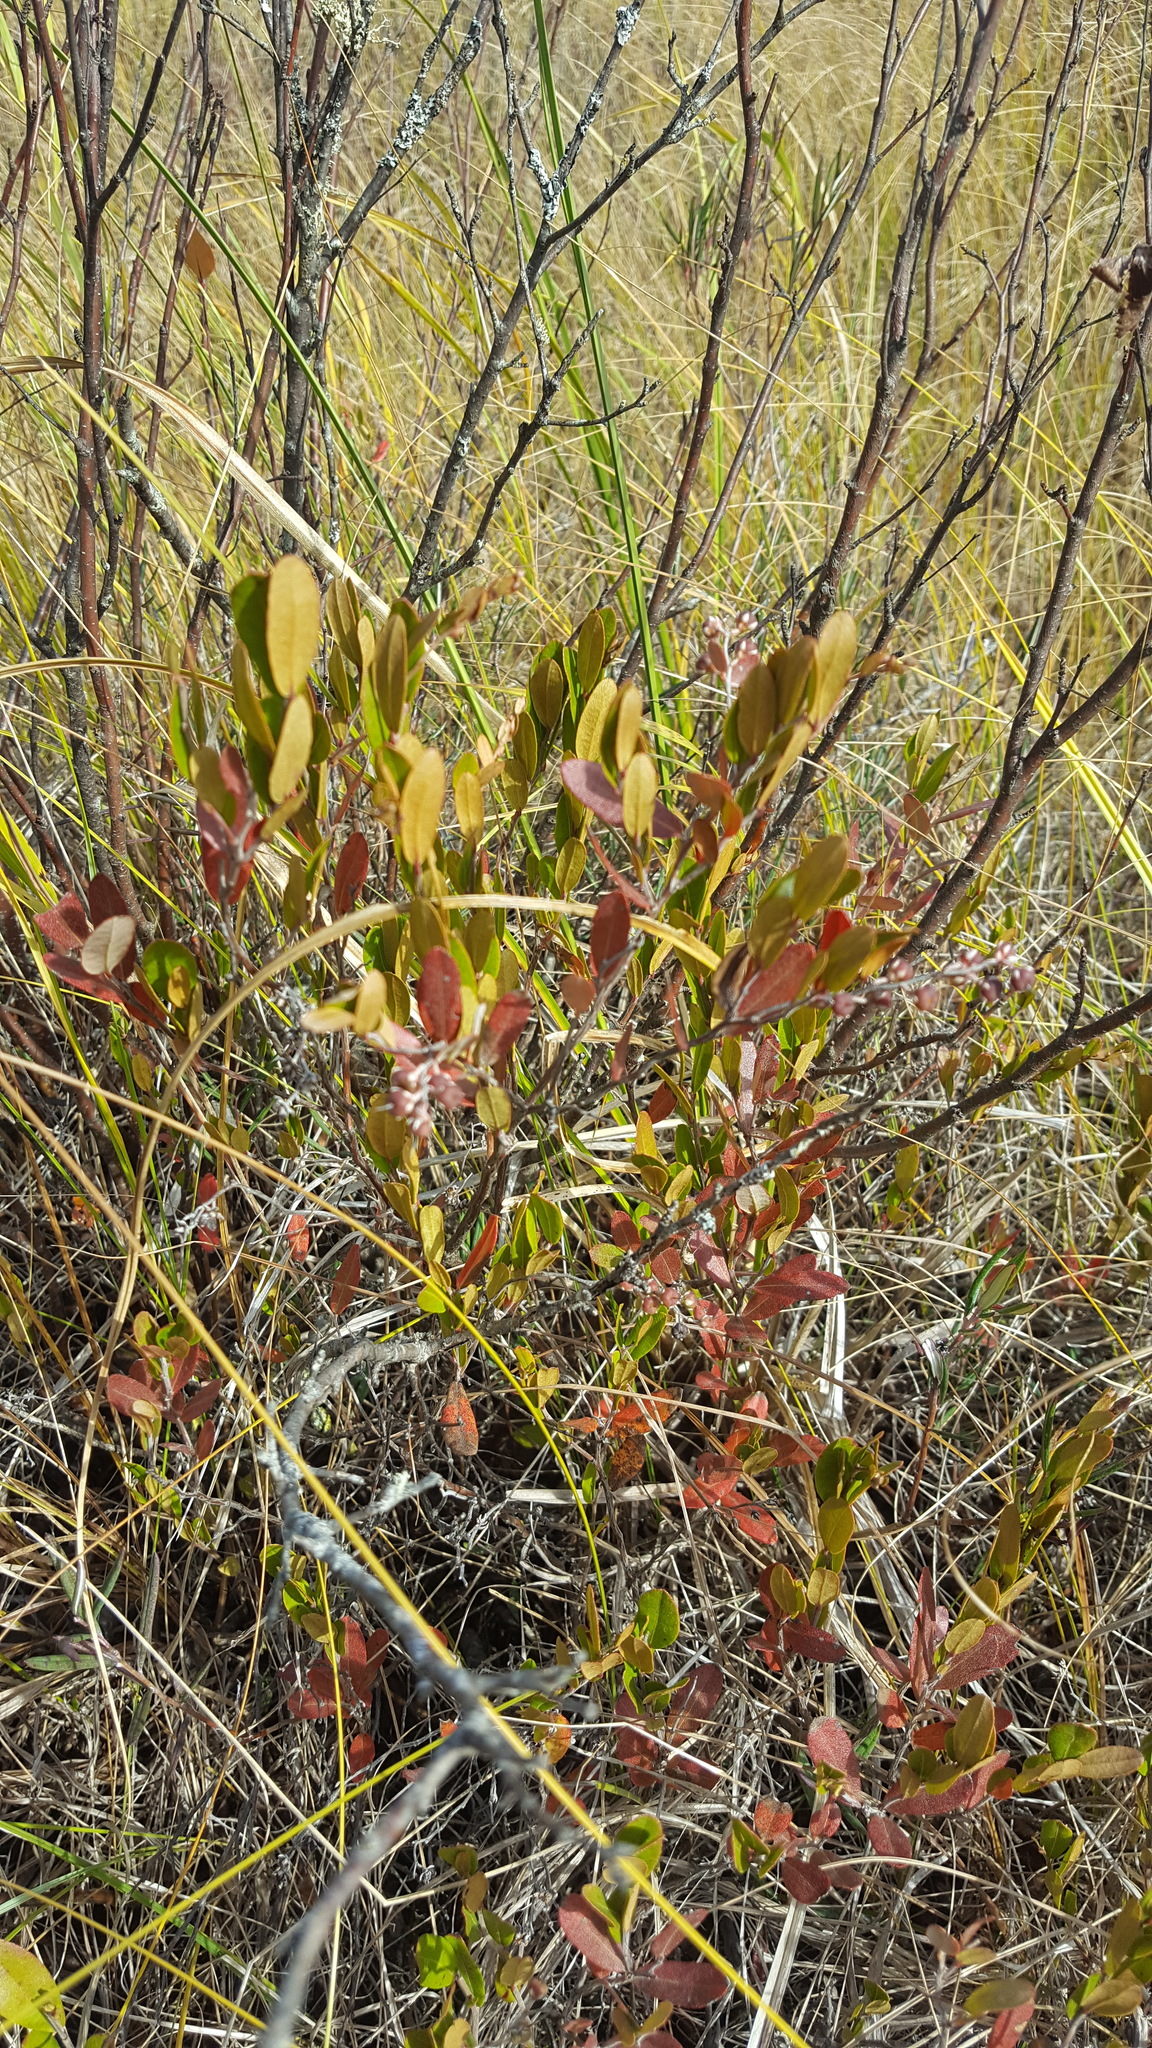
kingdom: Plantae
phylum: Tracheophyta
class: Magnoliopsida
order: Ericales
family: Ericaceae
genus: Chamaedaphne
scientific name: Chamaedaphne calyculata
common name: Leatherleaf
